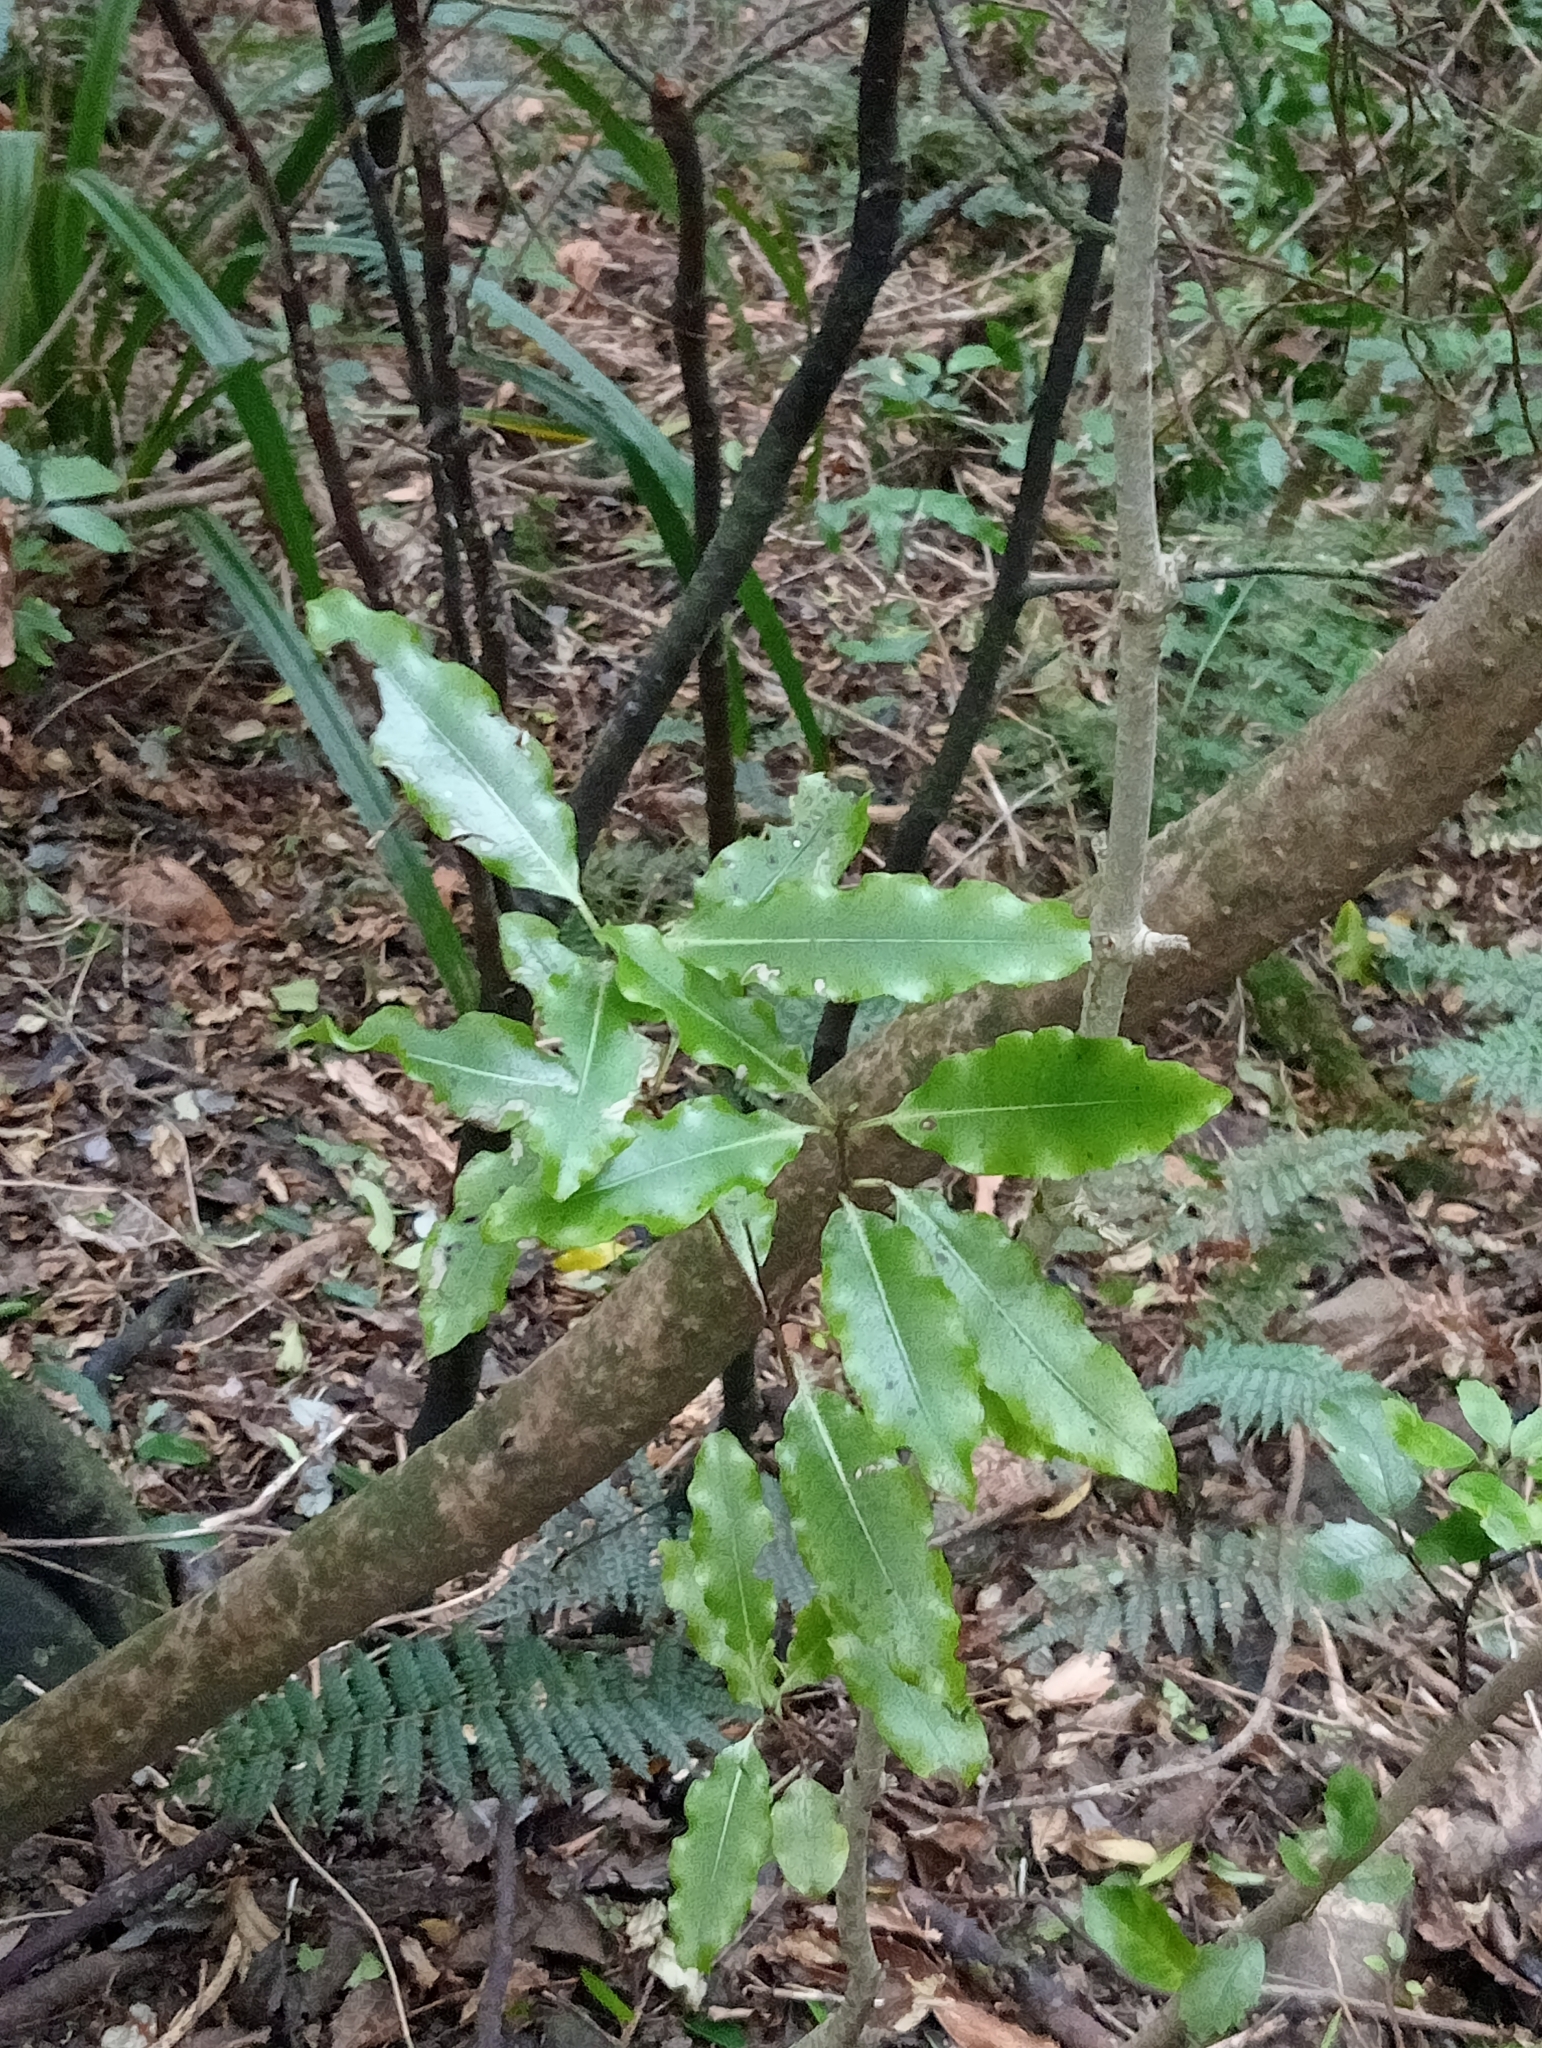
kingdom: Plantae
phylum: Tracheophyta
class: Magnoliopsida
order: Apiales
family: Pittosporaceae
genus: Pittosporum
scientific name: Pittosporum eugenioides
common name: Lemonwood
